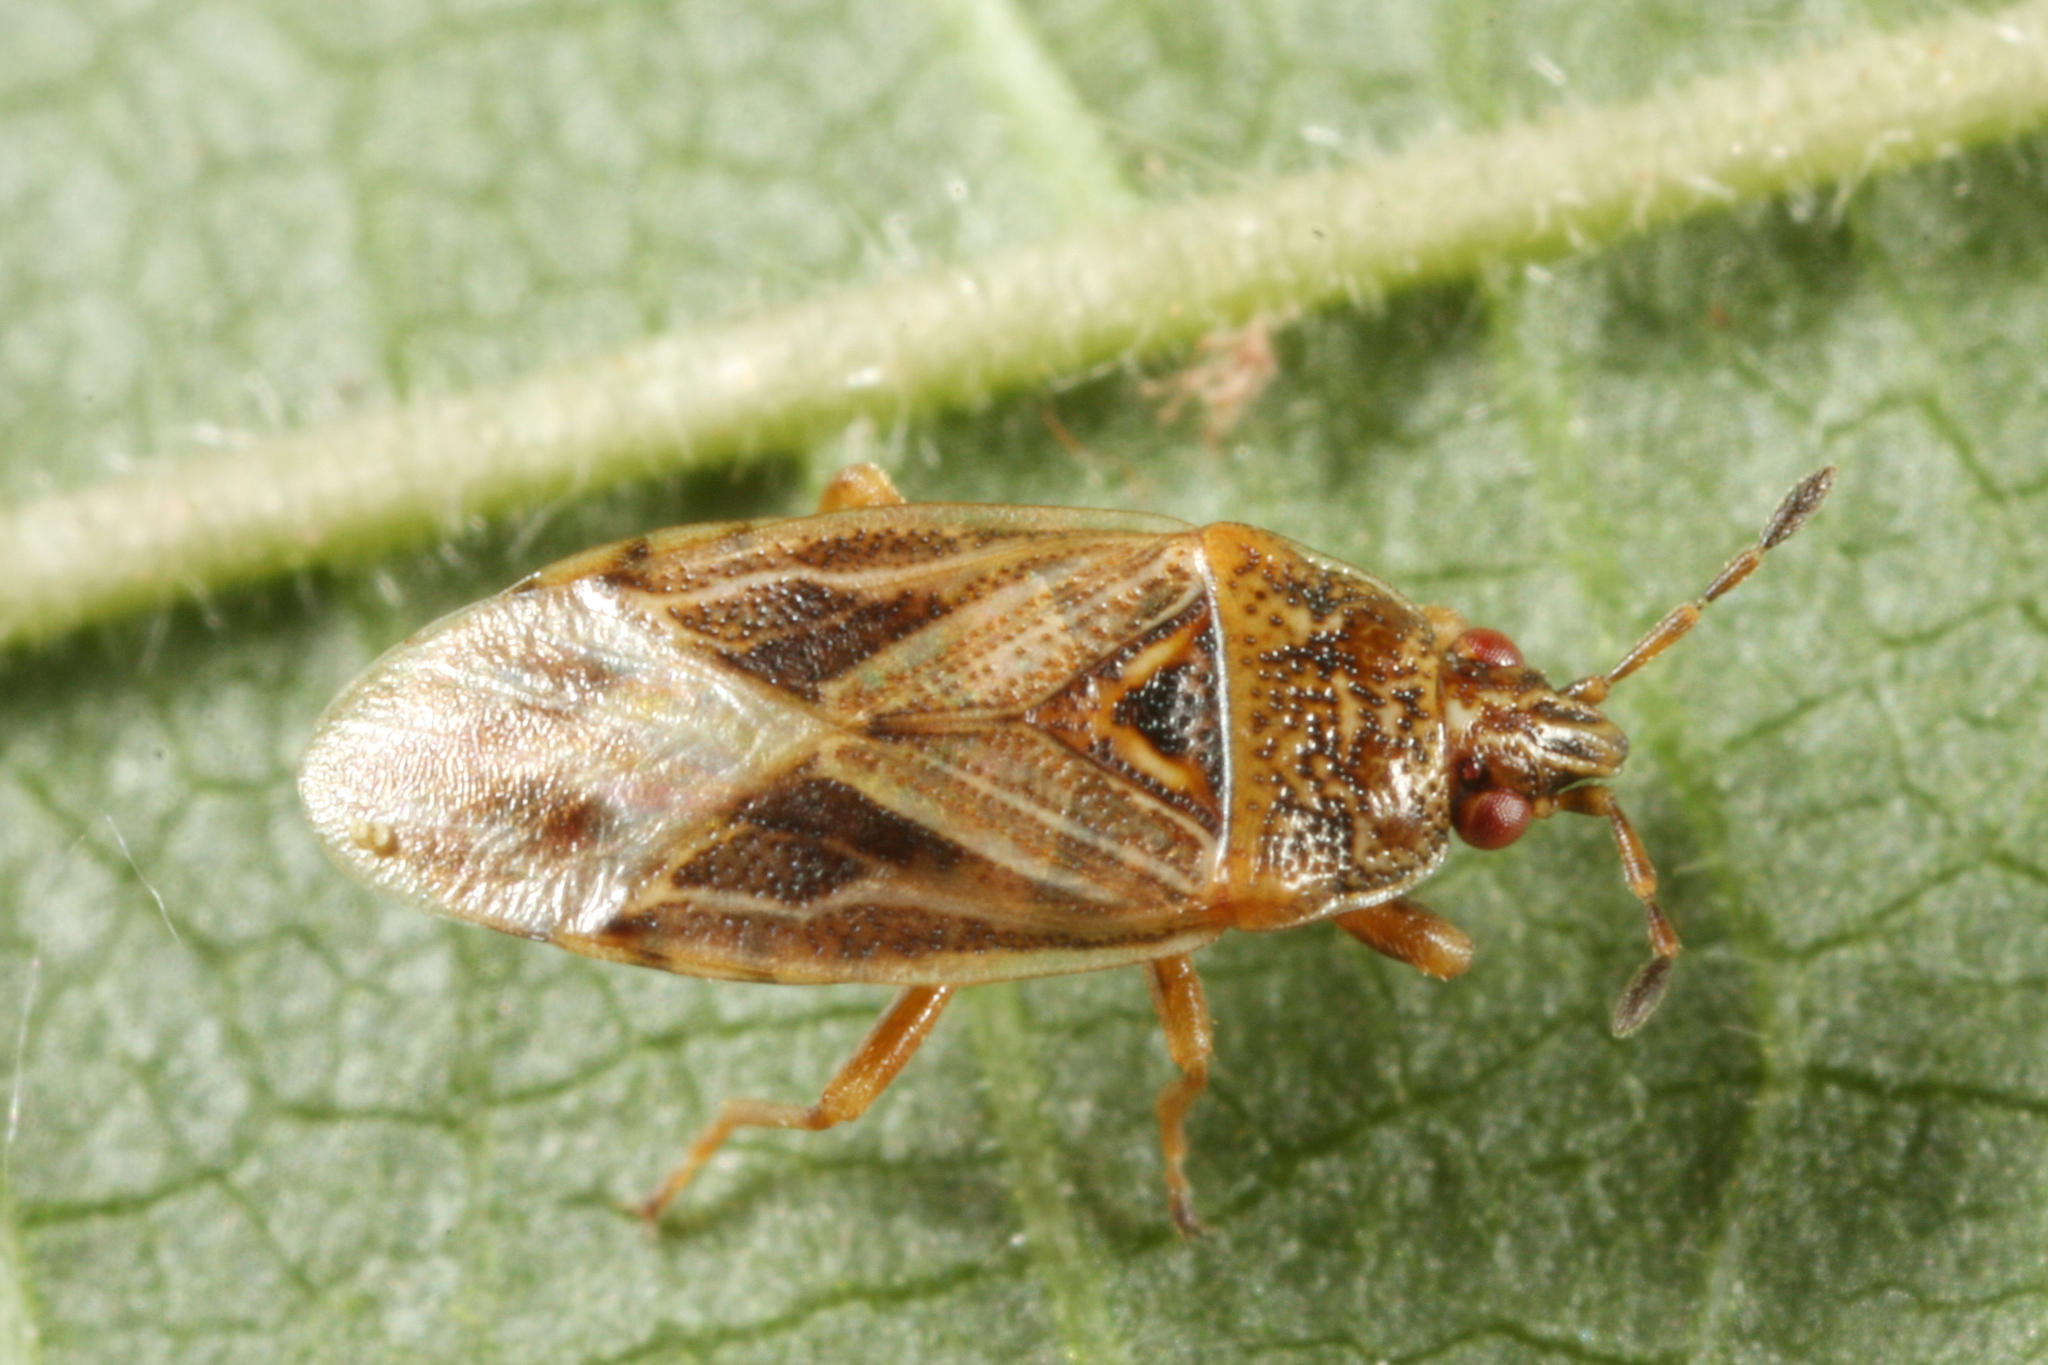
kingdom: Animalia
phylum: Arthropoda
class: Insecta
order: Hemiptera
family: Artheneidae
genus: Chilacis
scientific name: Chilacis typhae
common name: Cattail bug
